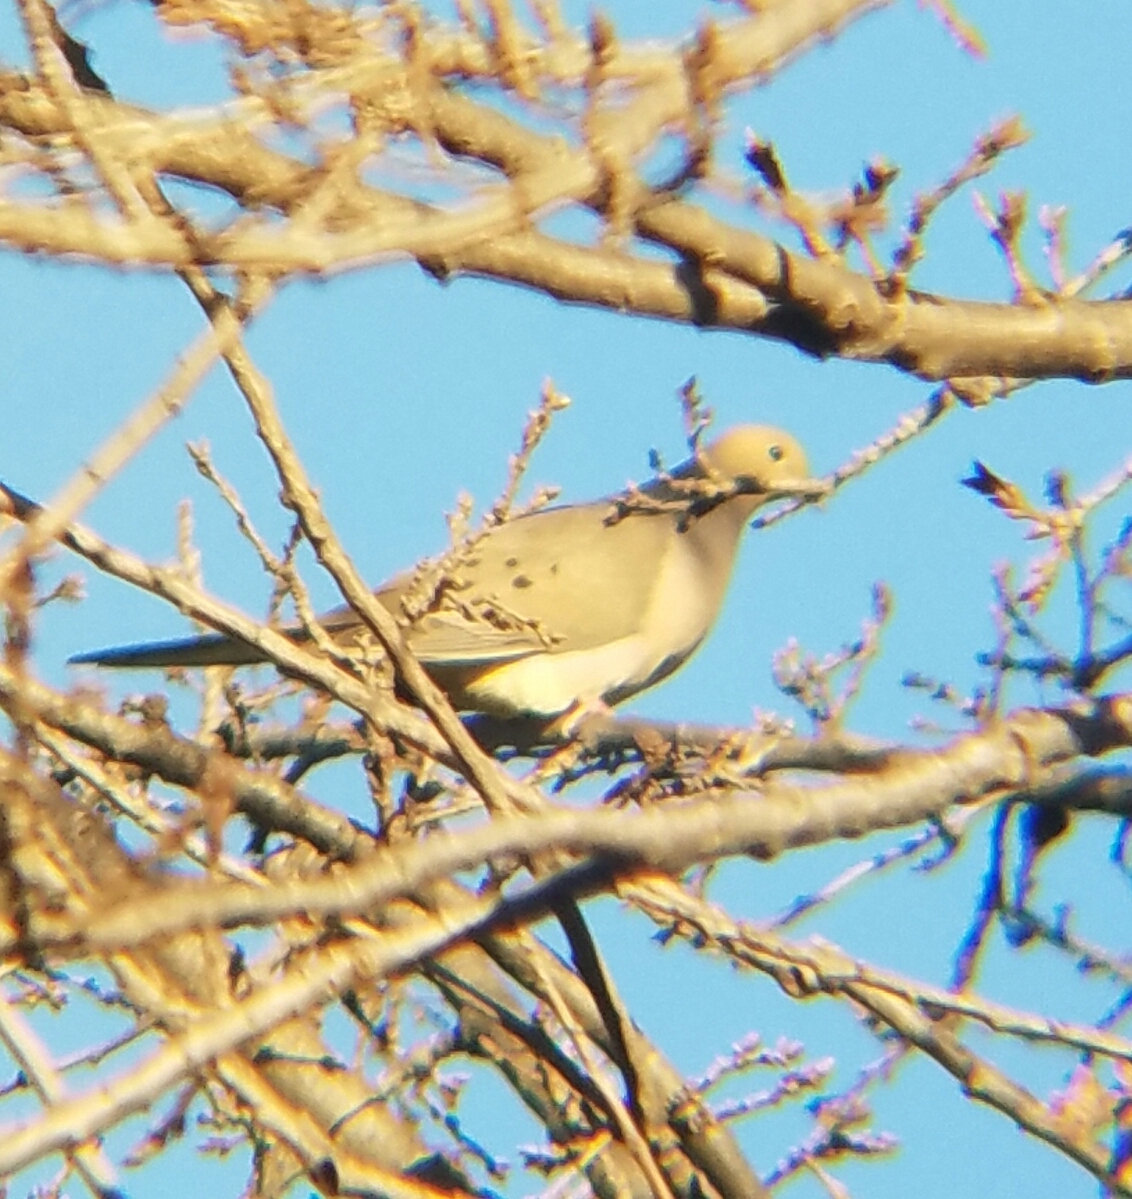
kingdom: Animalia
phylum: Chordata
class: Aves
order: Columbiformes
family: Columbidae
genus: Zenaida
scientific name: Zenaida macroura
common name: Mourning dove
